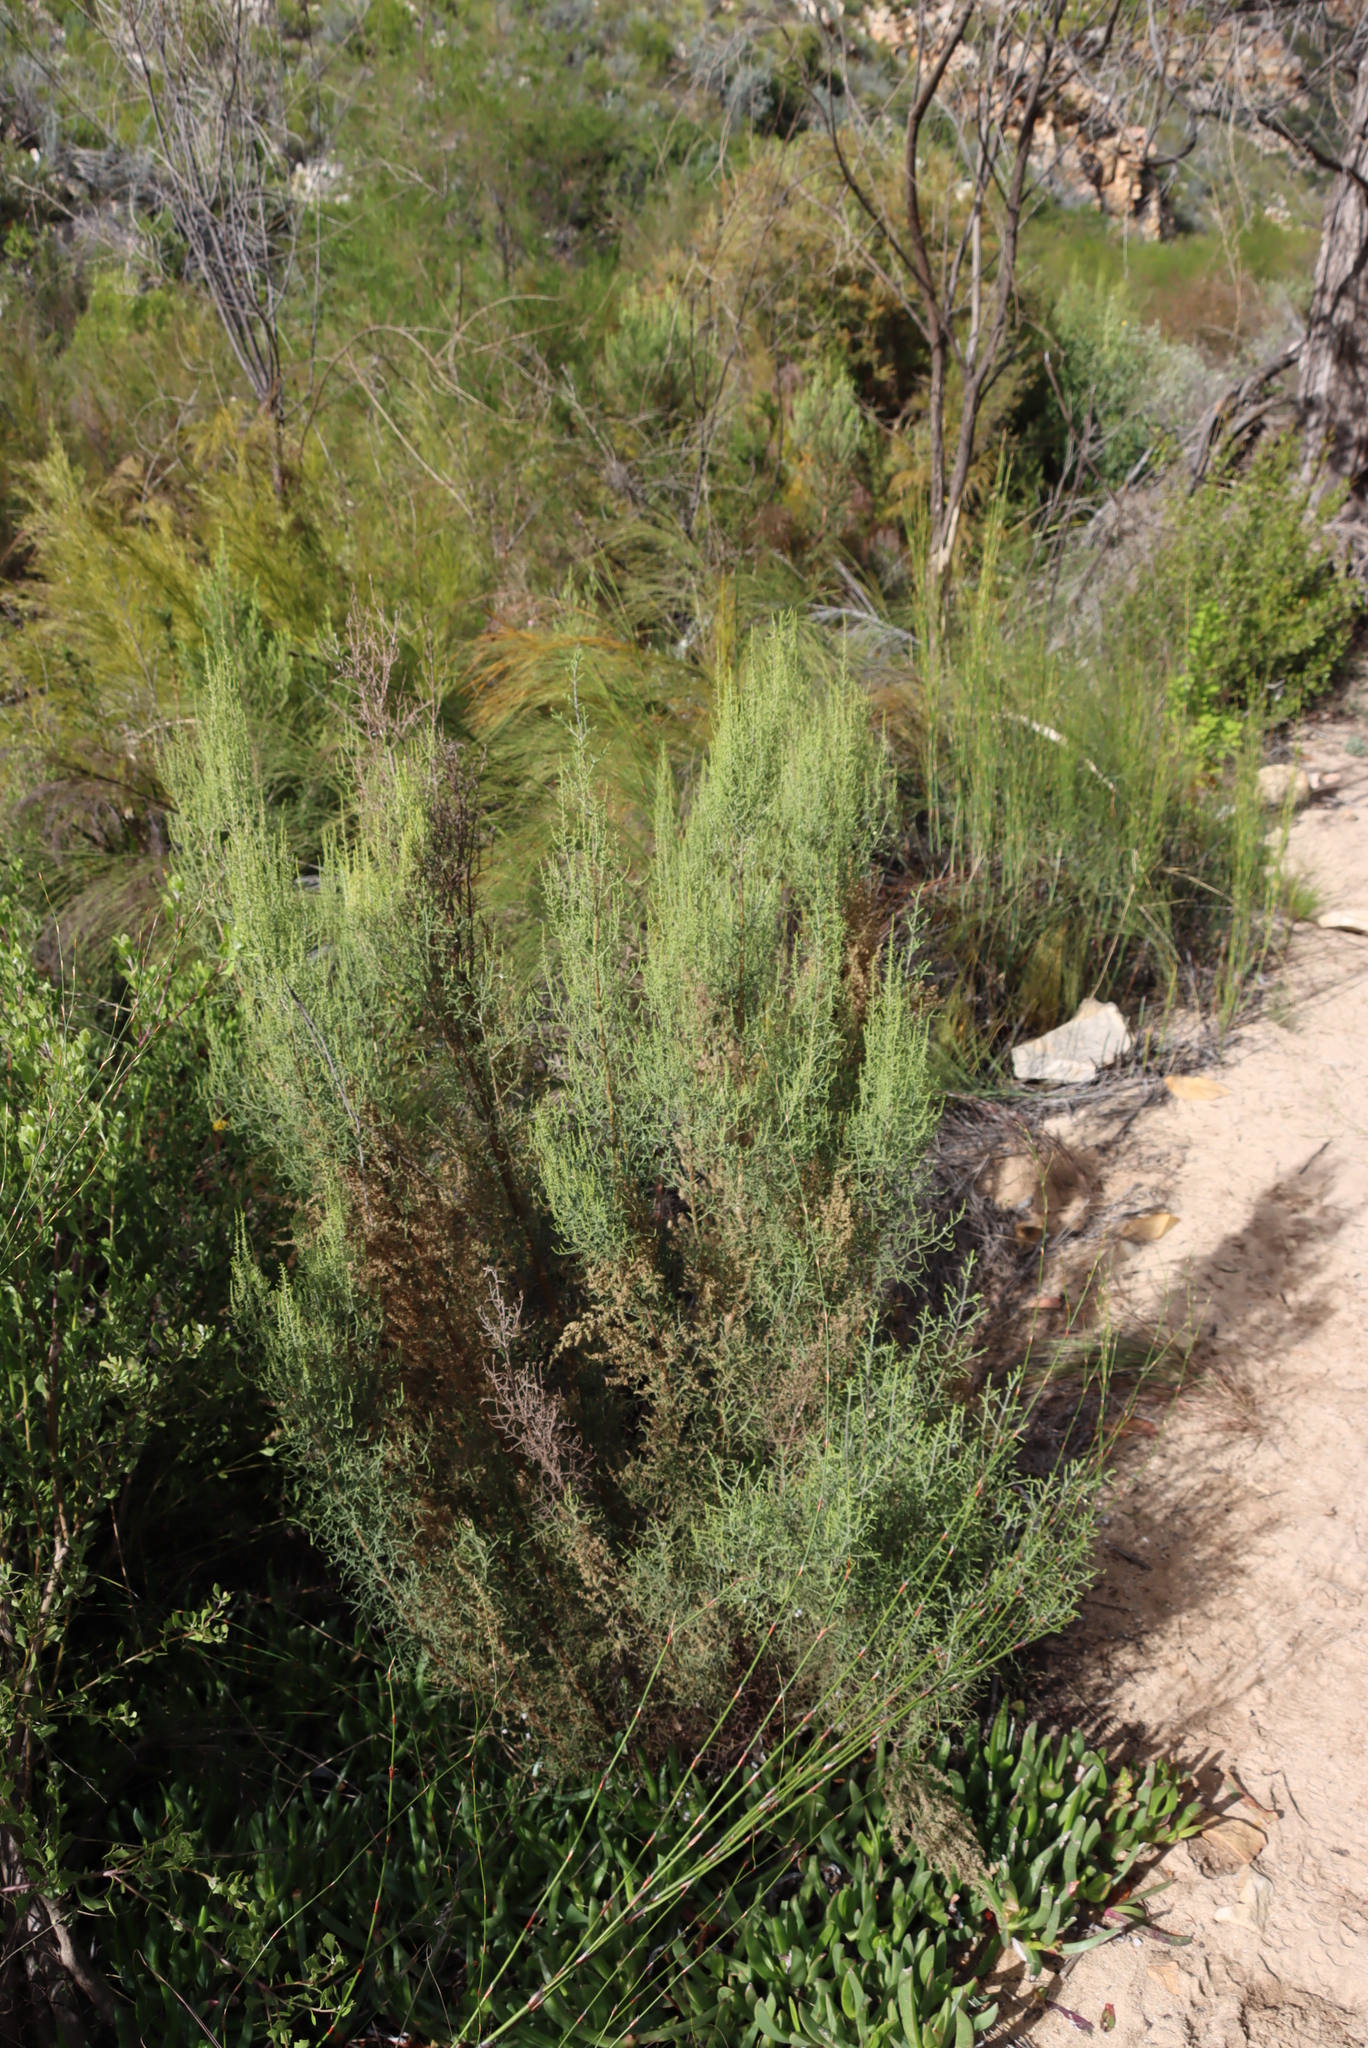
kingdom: Plantae
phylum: Tracheophyta
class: Magnoliopsida
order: Asterales
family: Asteraceae
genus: Dicerothamnus
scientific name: Dicerothamnus rhinocerotis
